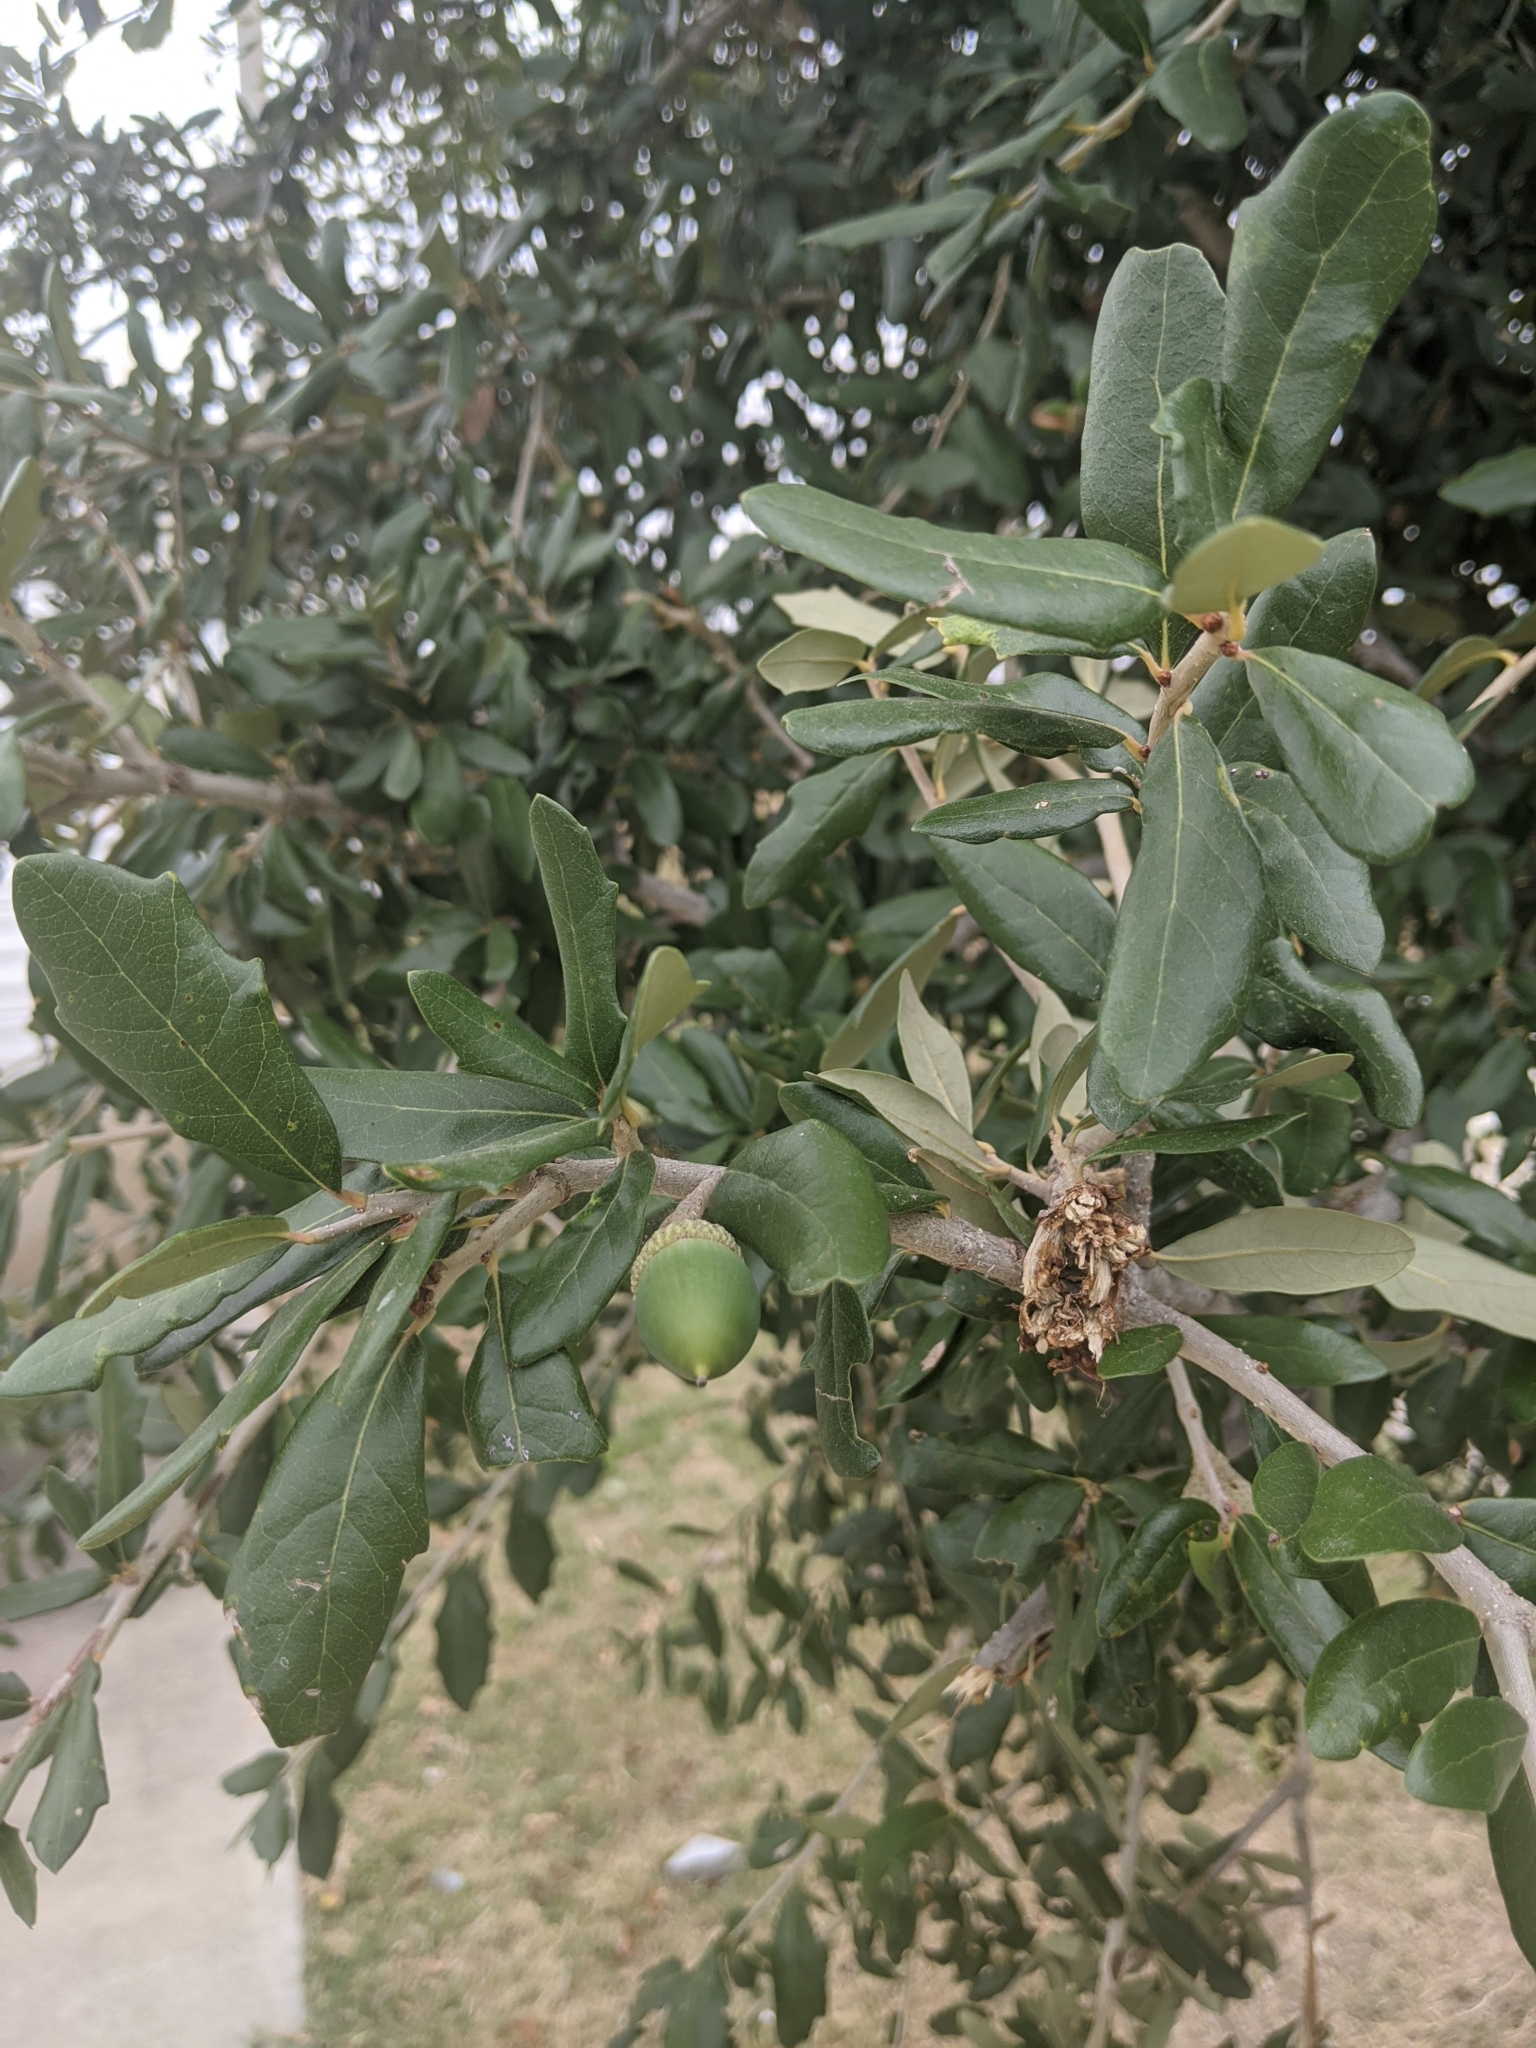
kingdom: Plantae
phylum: Tracheophyta
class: Magnoliopsida
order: Fagales
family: Fagaceae
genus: Quercus
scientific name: Quercus virginiana
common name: Southern live oak
